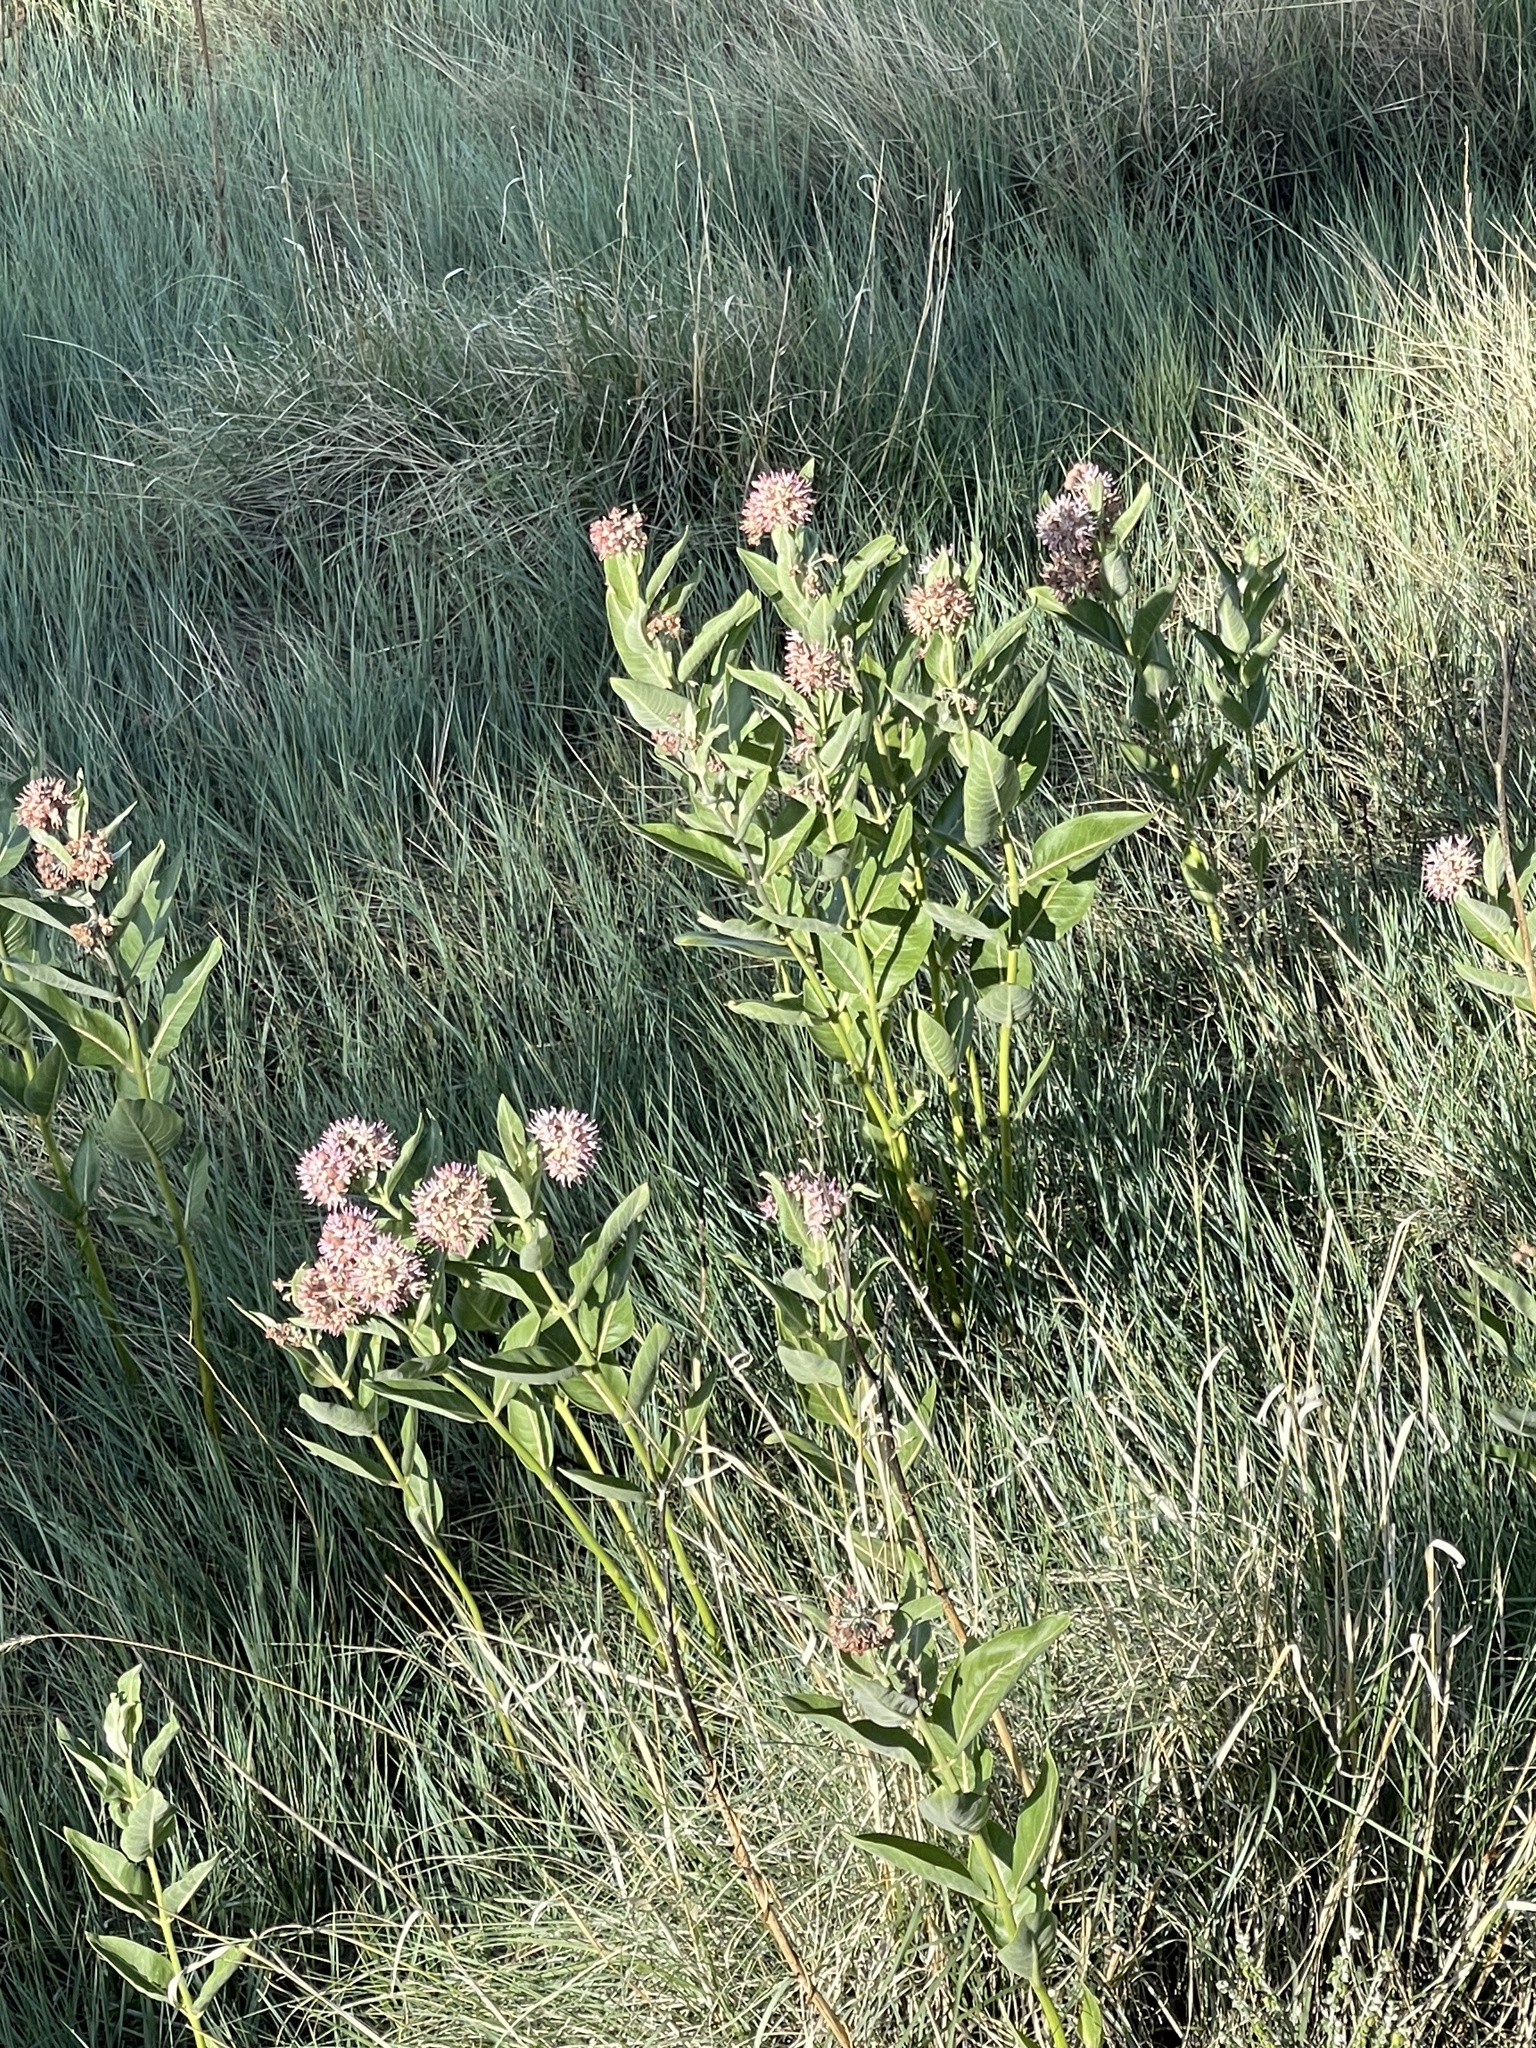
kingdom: Plantae
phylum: Tracheophyta
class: Magnoliopsida
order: Gentianales
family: Apocynaceae
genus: Asclepias
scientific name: Asclepias speciosa
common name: Showy milkweed
